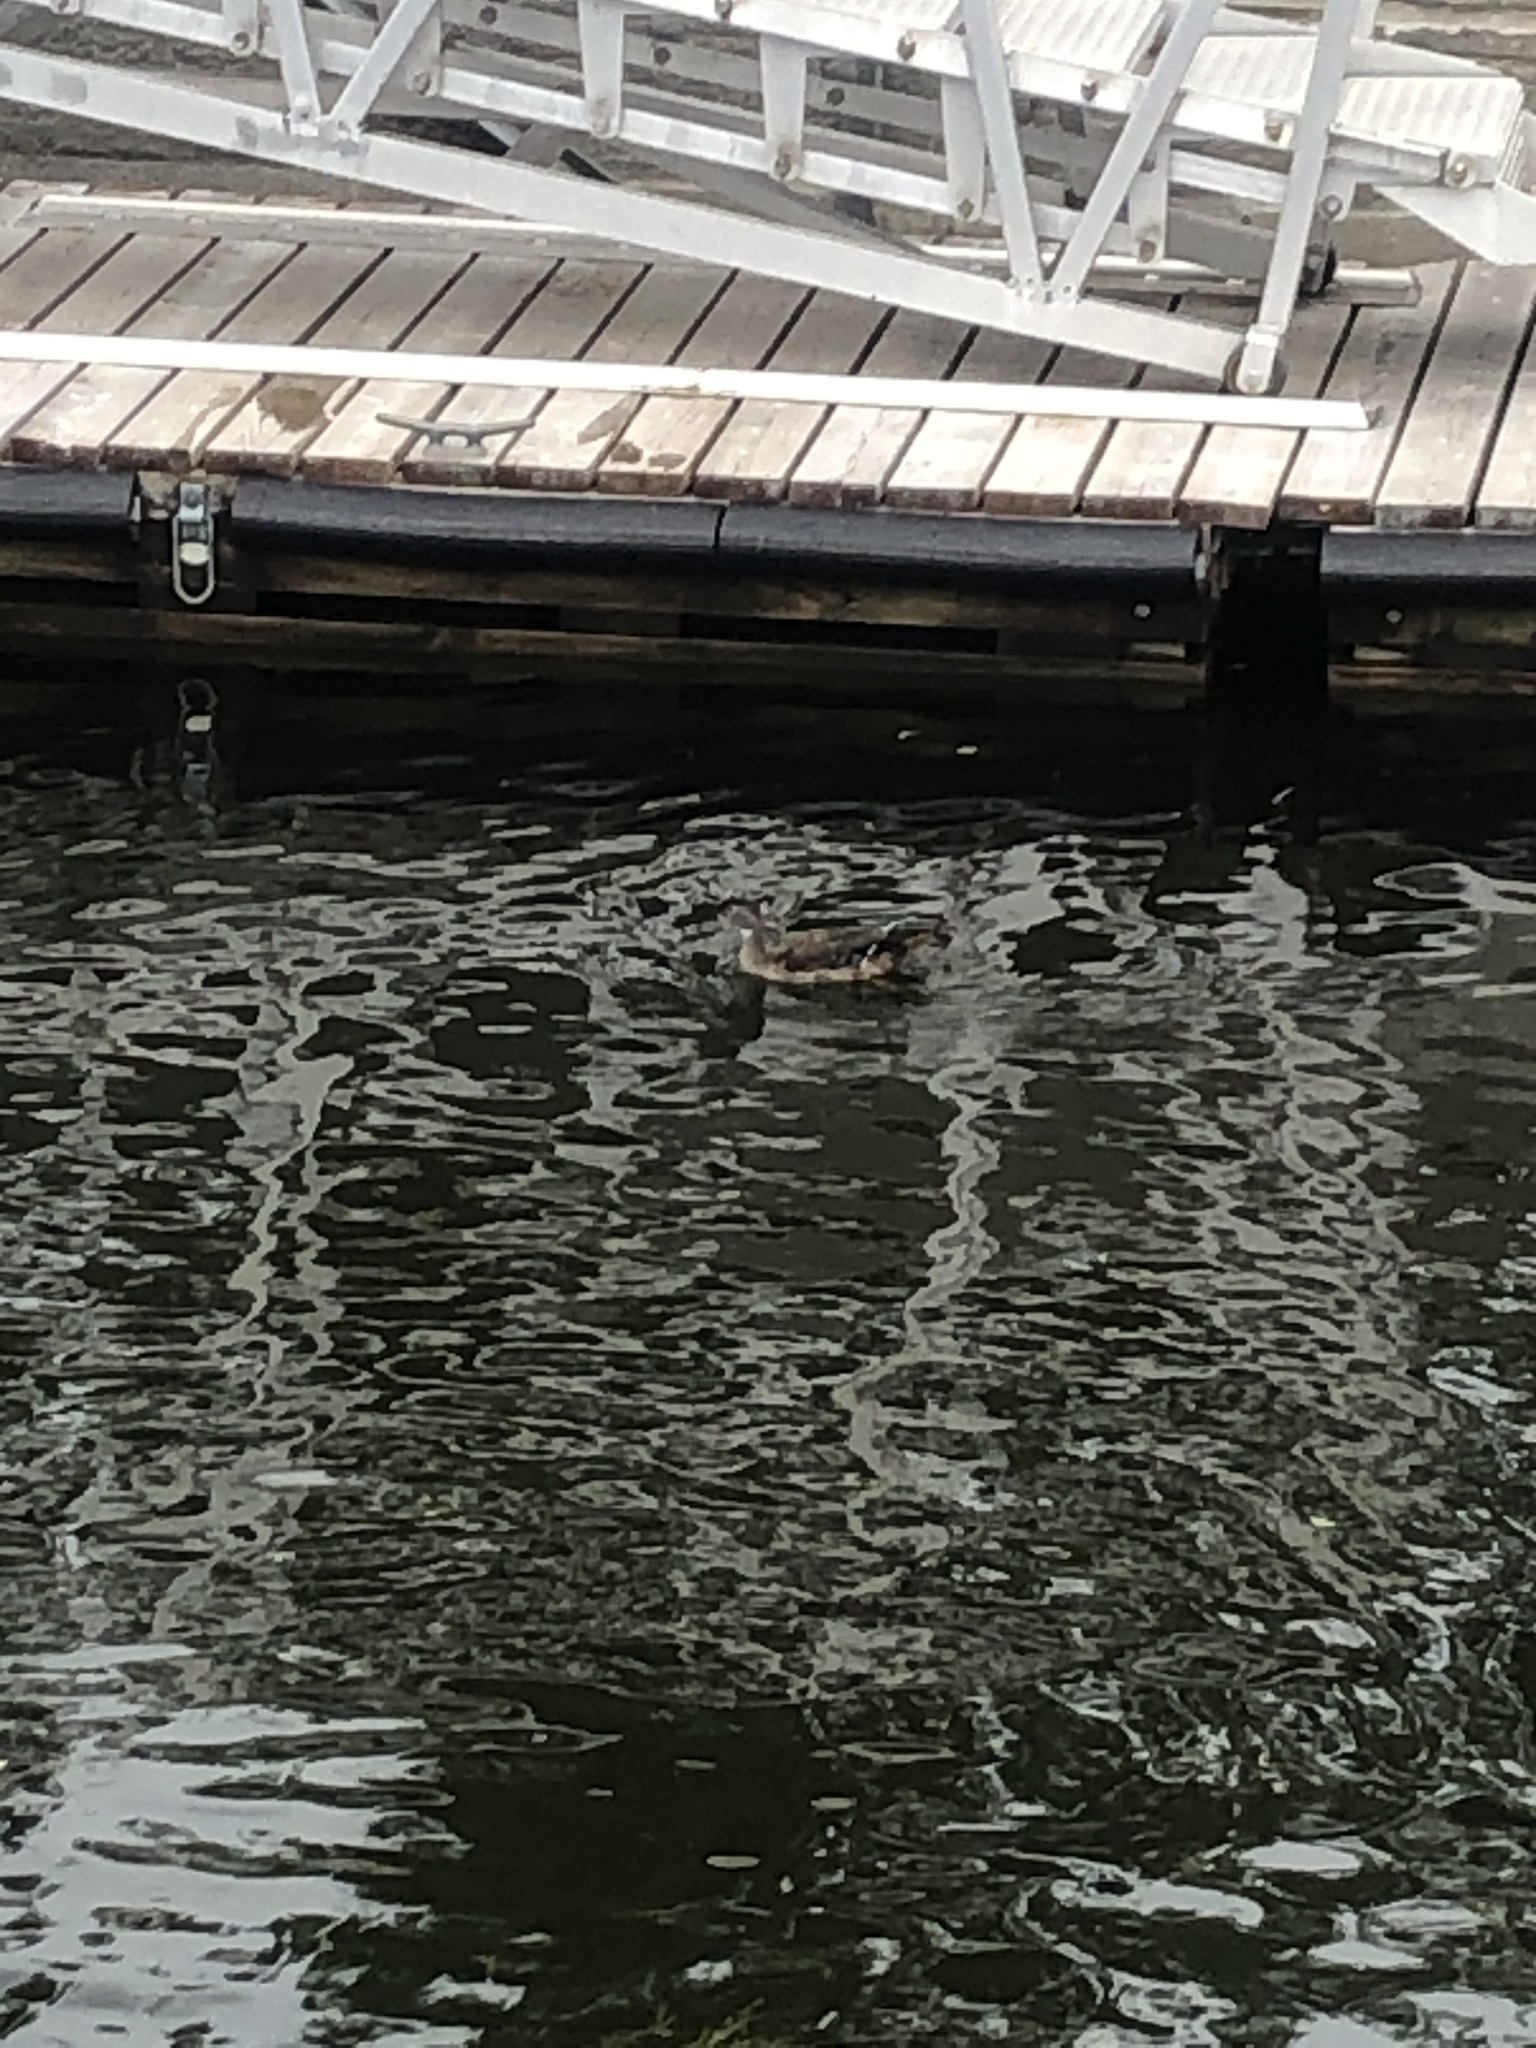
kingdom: Animalia
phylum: Chordata
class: Aves
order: Anseriformes
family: Anatidae
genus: Aix
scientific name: Aix sponsa
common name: Wood duck
